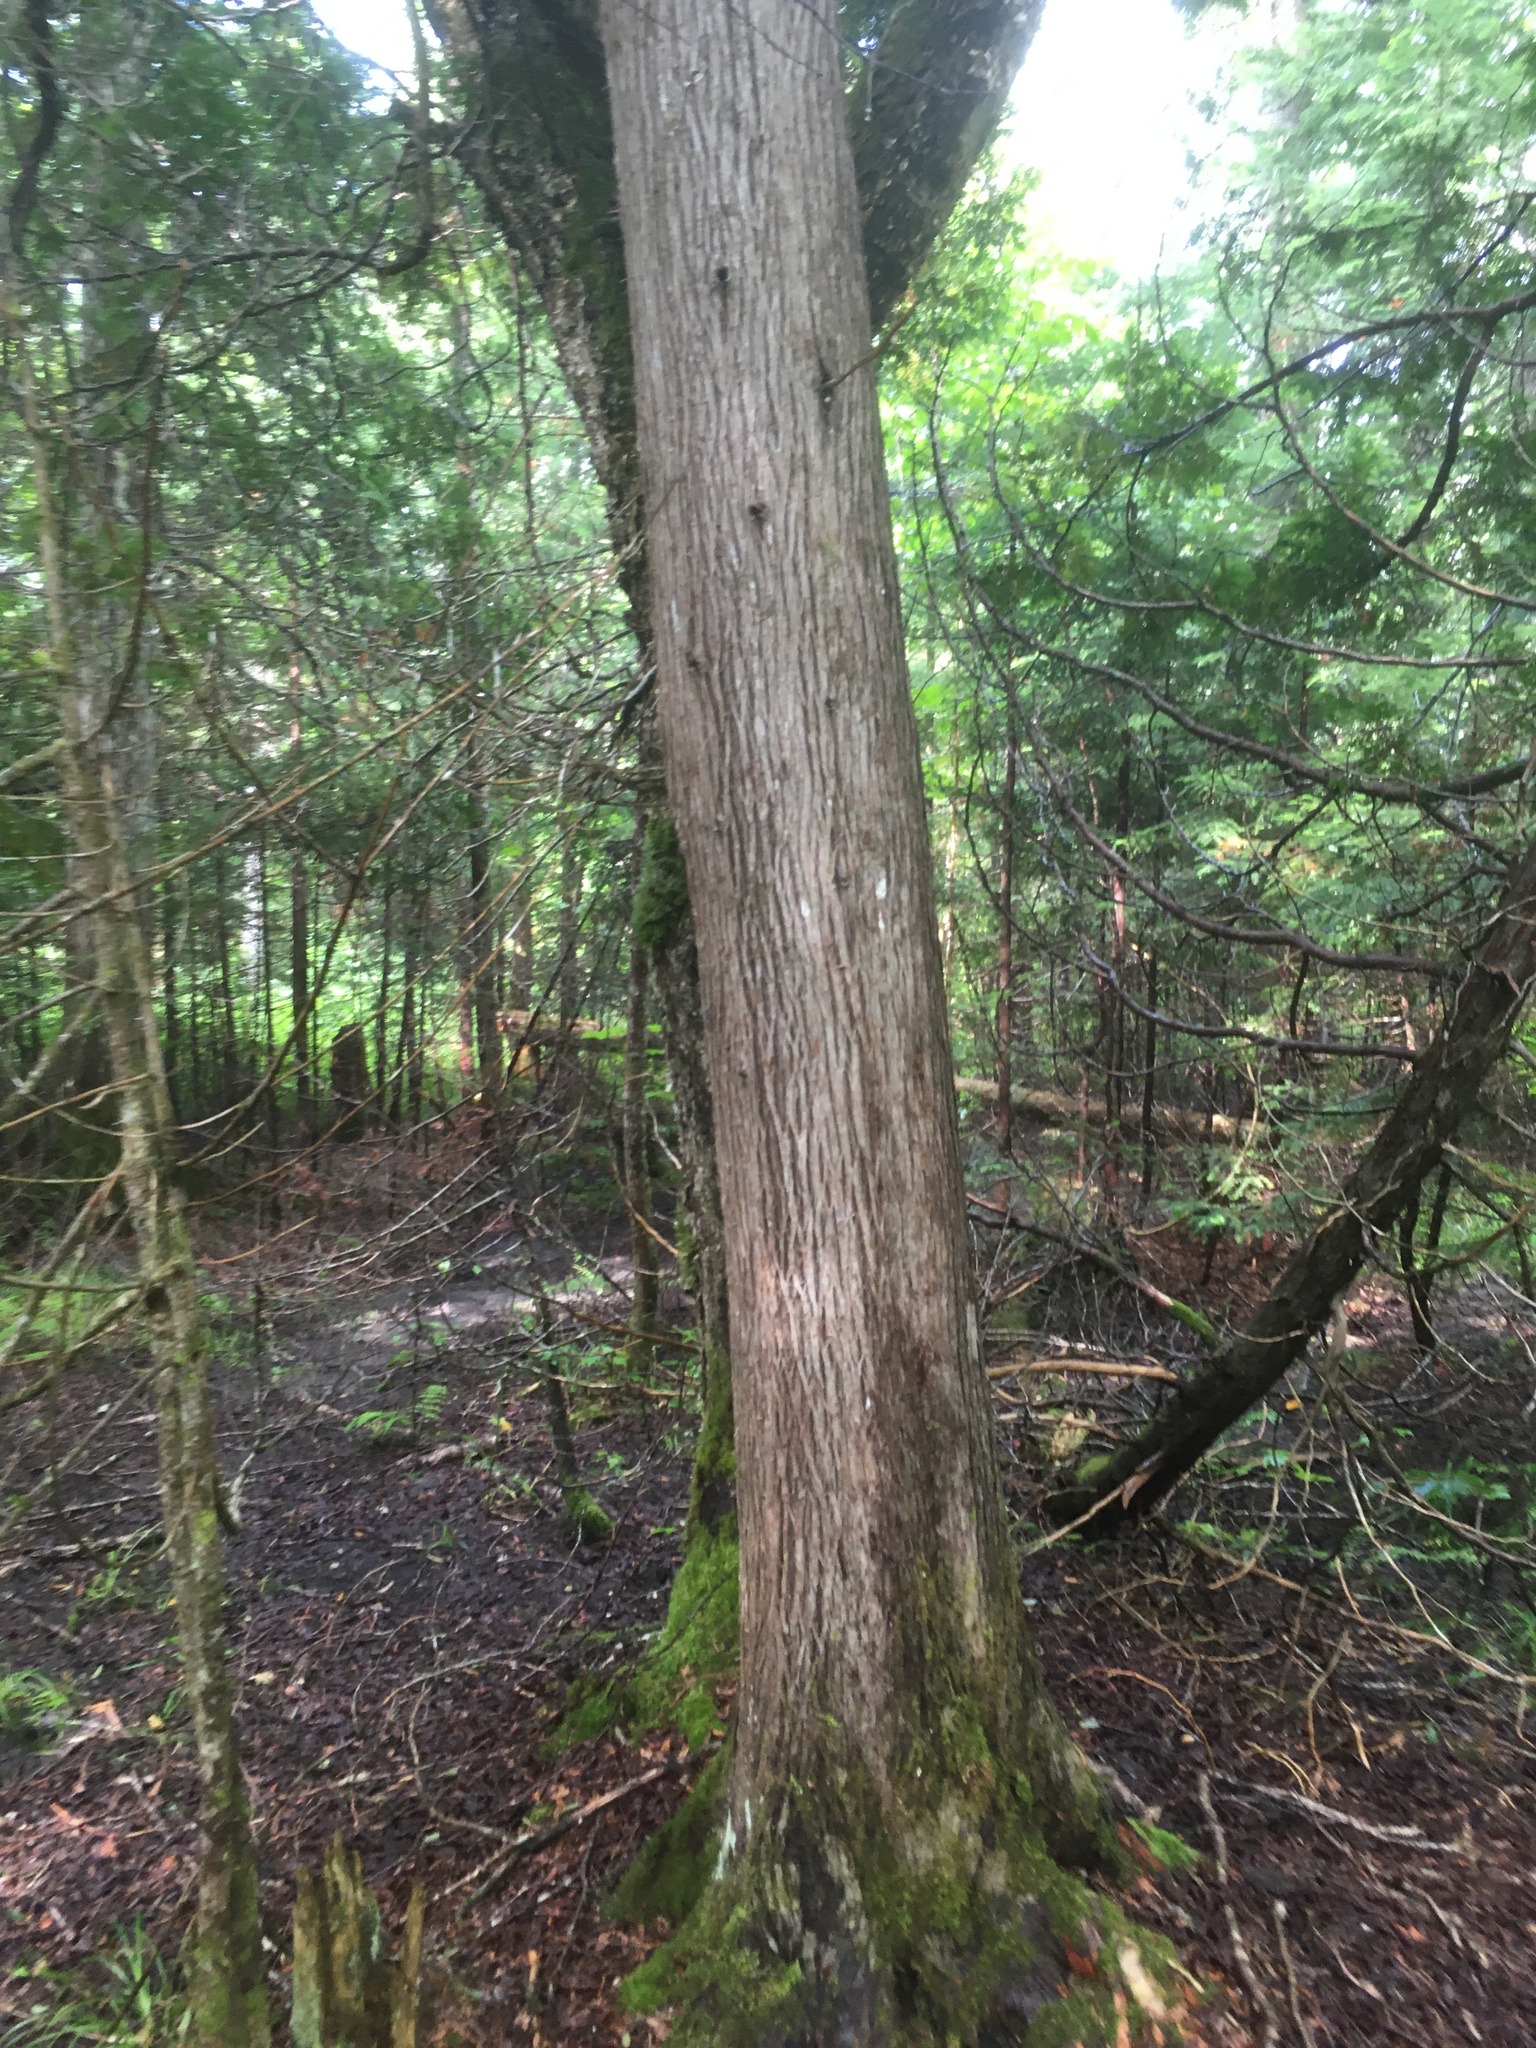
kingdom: Plantae
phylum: Tracheophyta
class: Pinopsida
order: Pinales
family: Cupressaceae
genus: Thuja
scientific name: Thuja occidentalis
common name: Northern white-cedar
